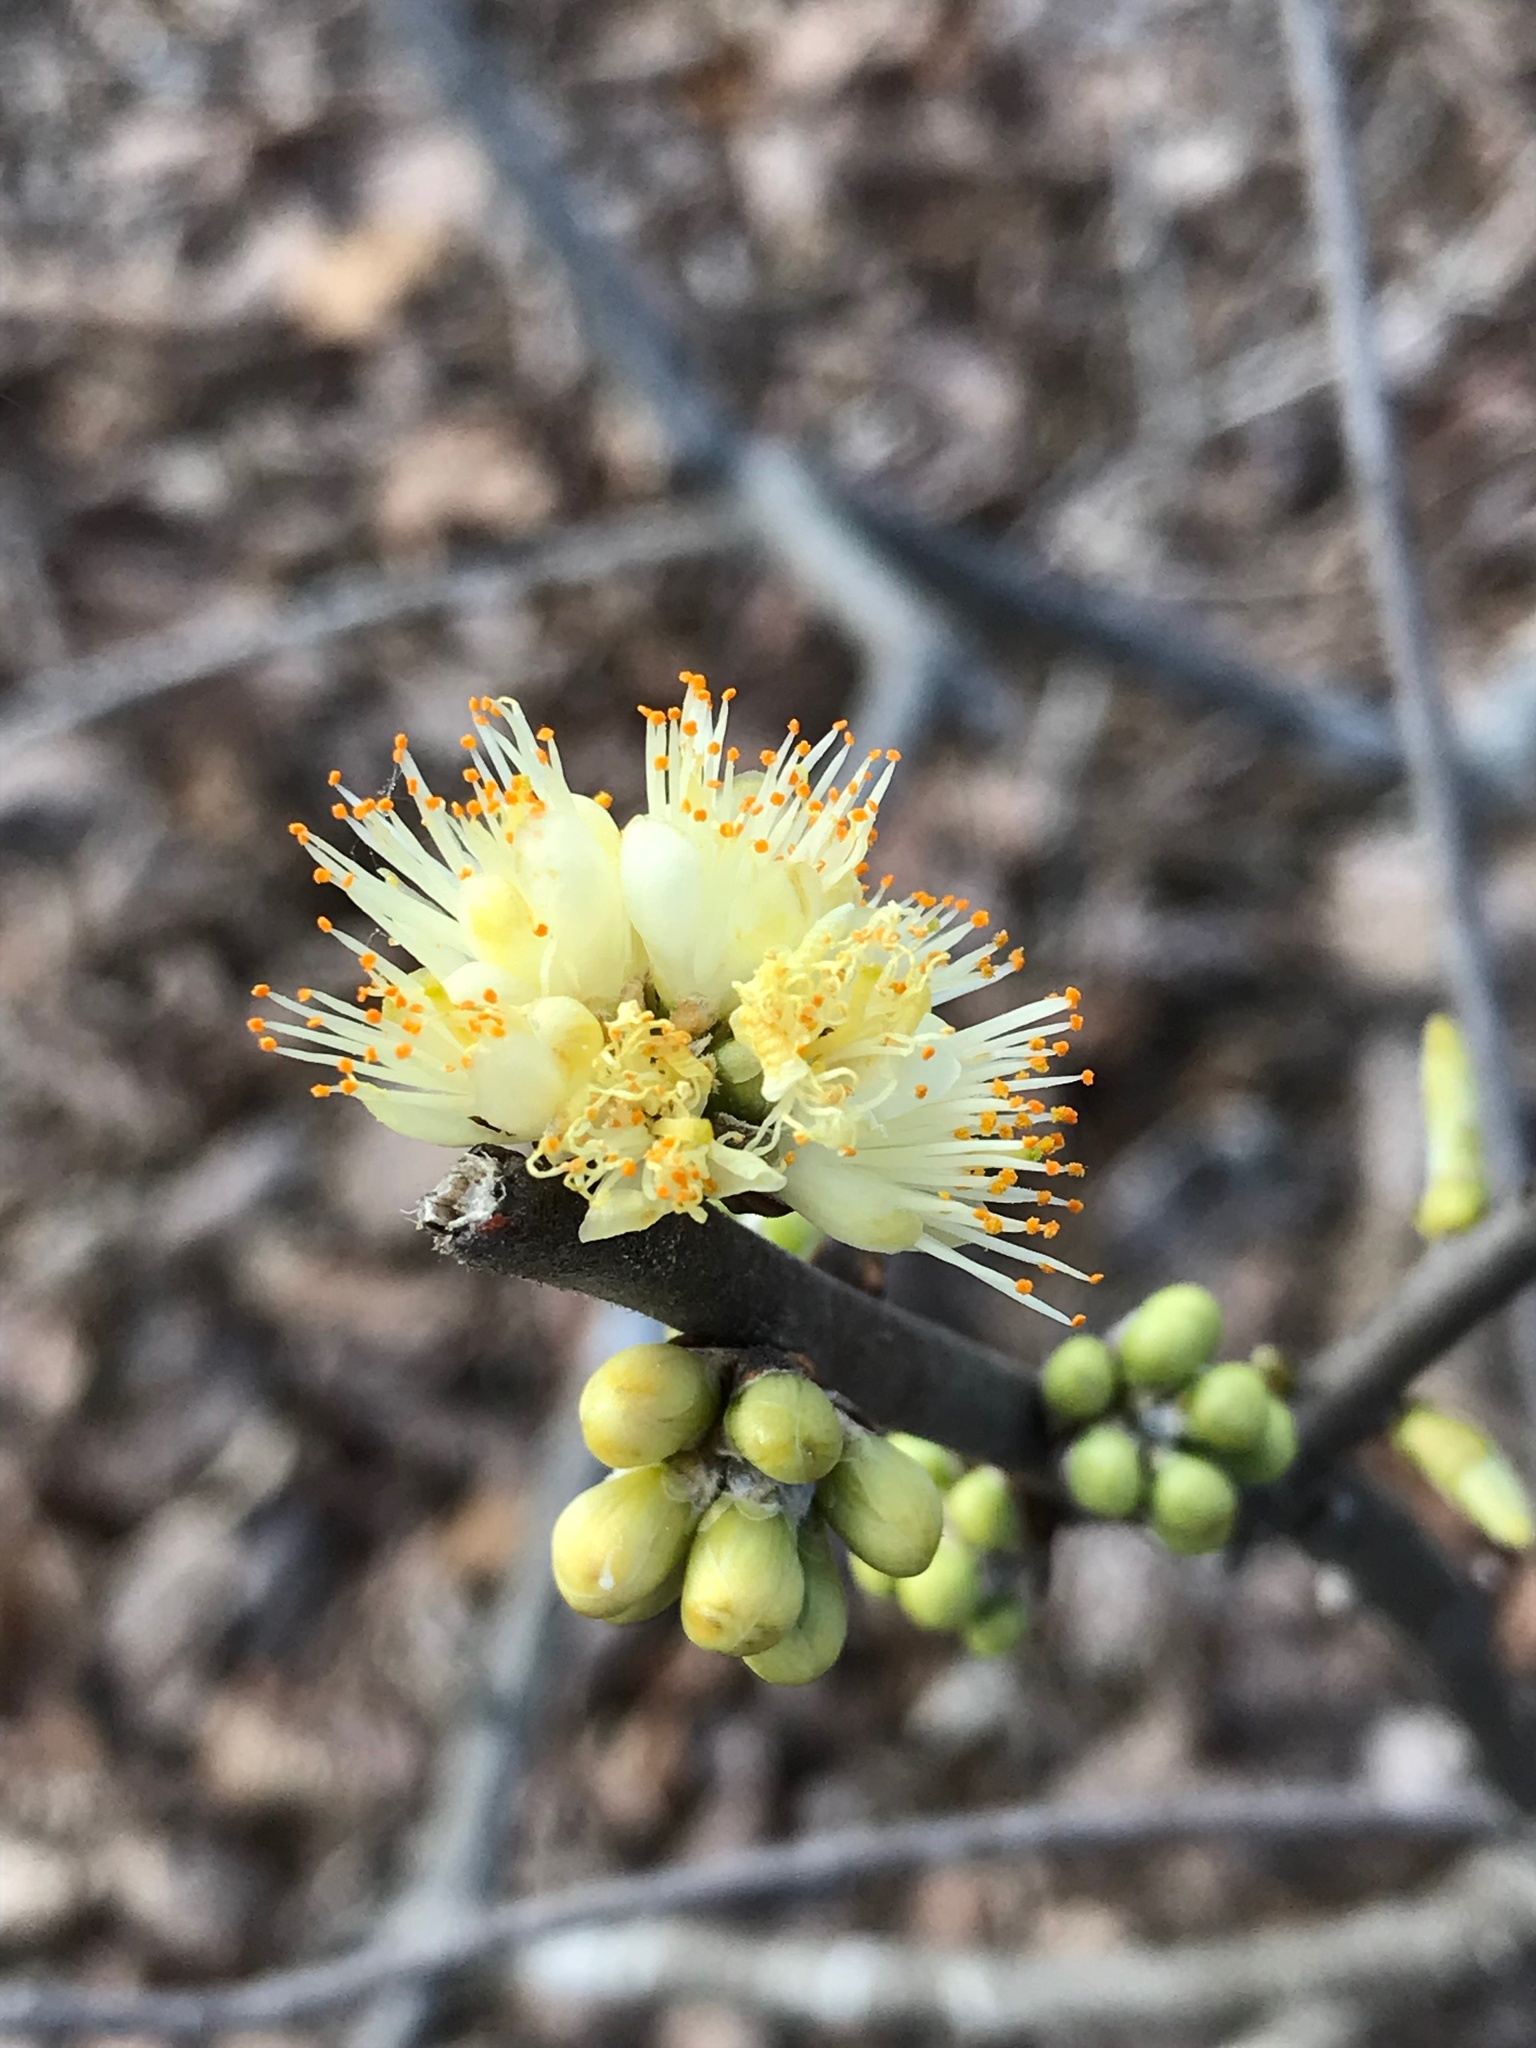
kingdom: Plantae
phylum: Tracheophyta
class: Magnoliopsida
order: Ericales
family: Symplocaceae
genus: Symplocos
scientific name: Symplocos tinctoria
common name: Horse-sugar
